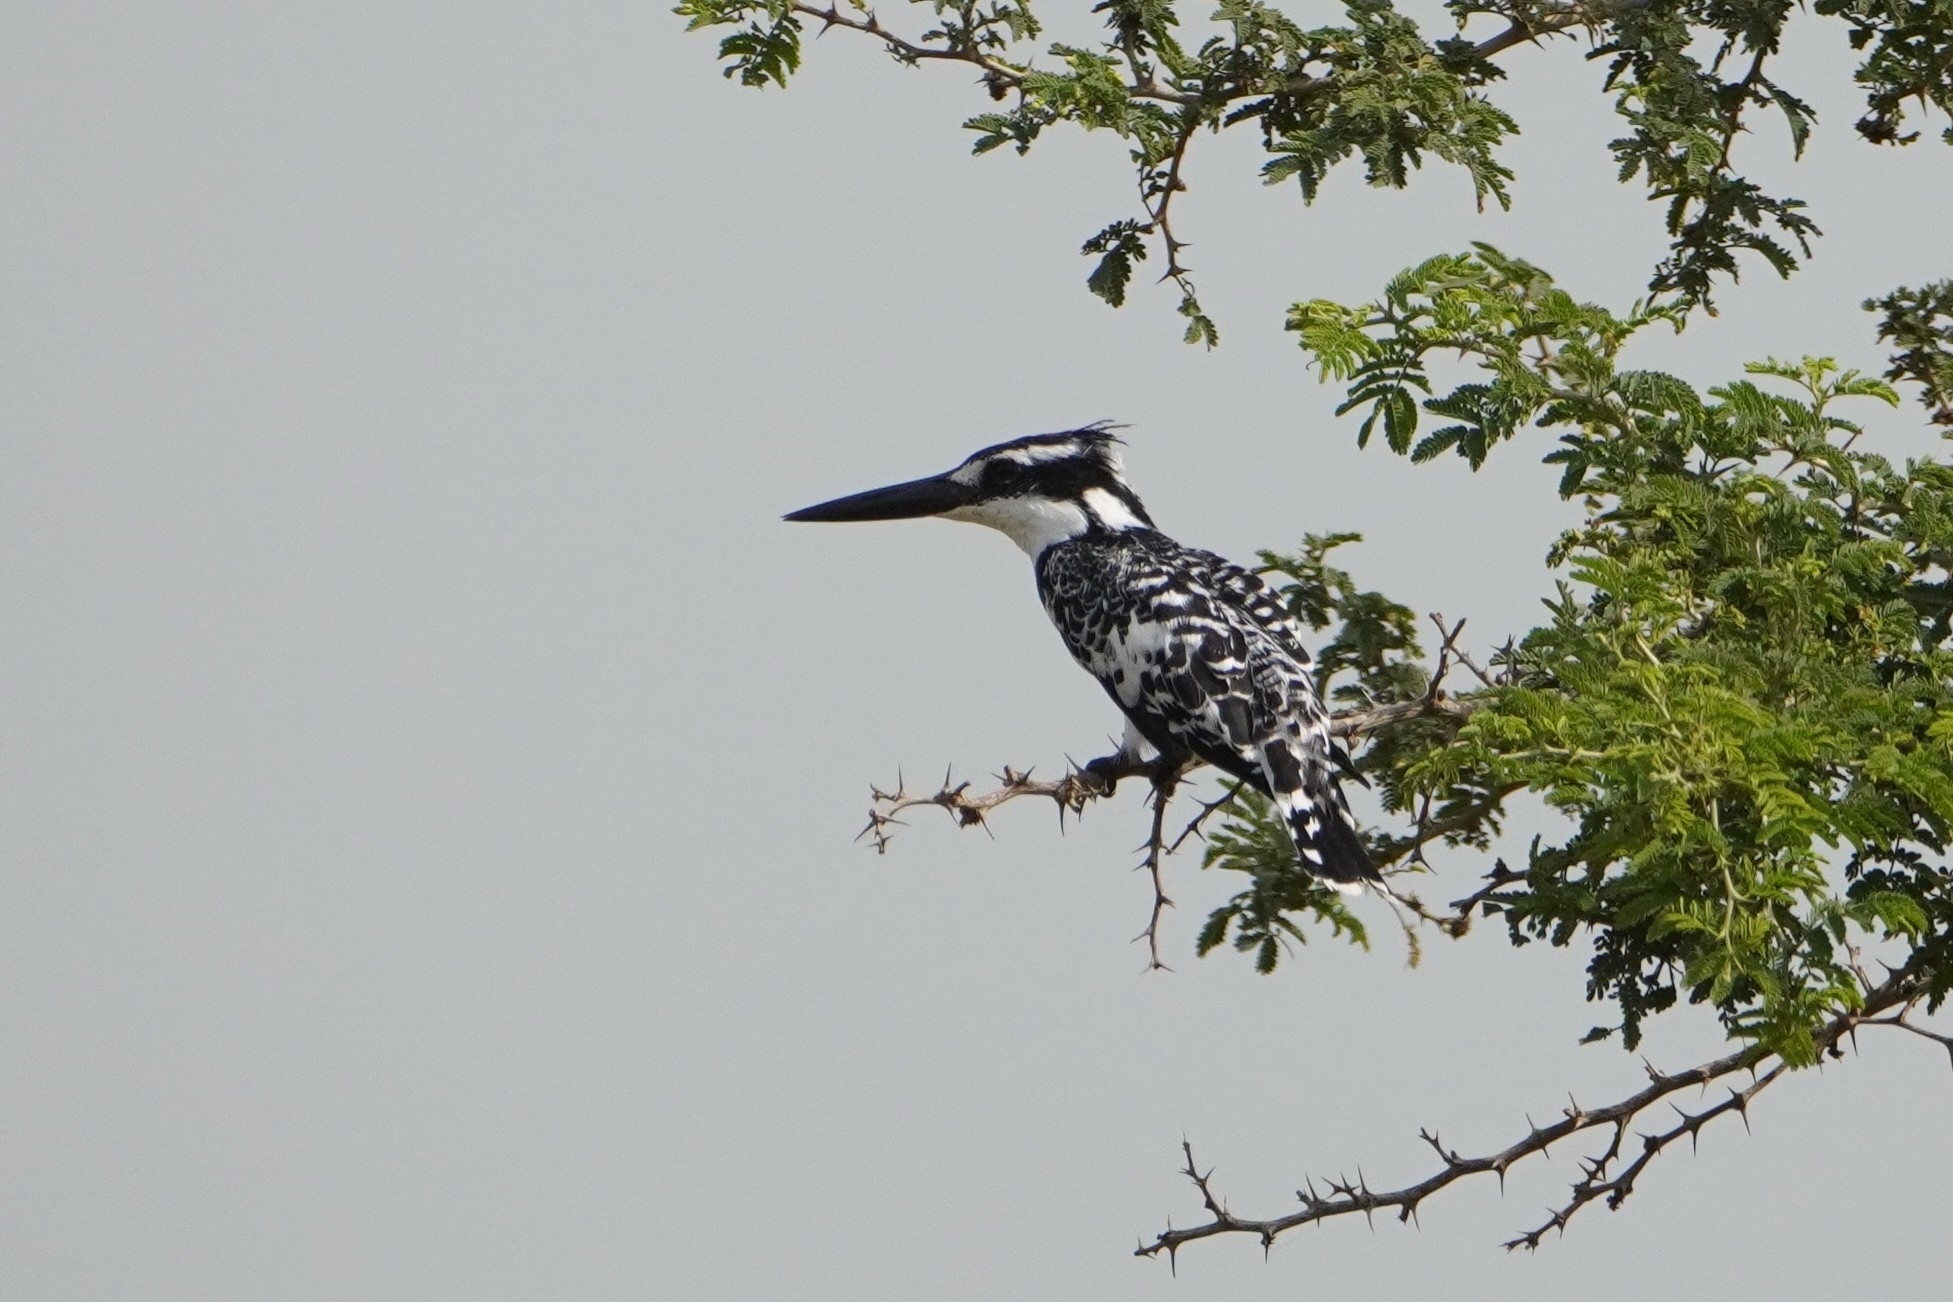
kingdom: Animalia
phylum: Chordata
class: Aves
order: Coraciiformes
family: Alcedinidae
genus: Ceryle
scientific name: Ceryle rudis
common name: Pied kingfisher
